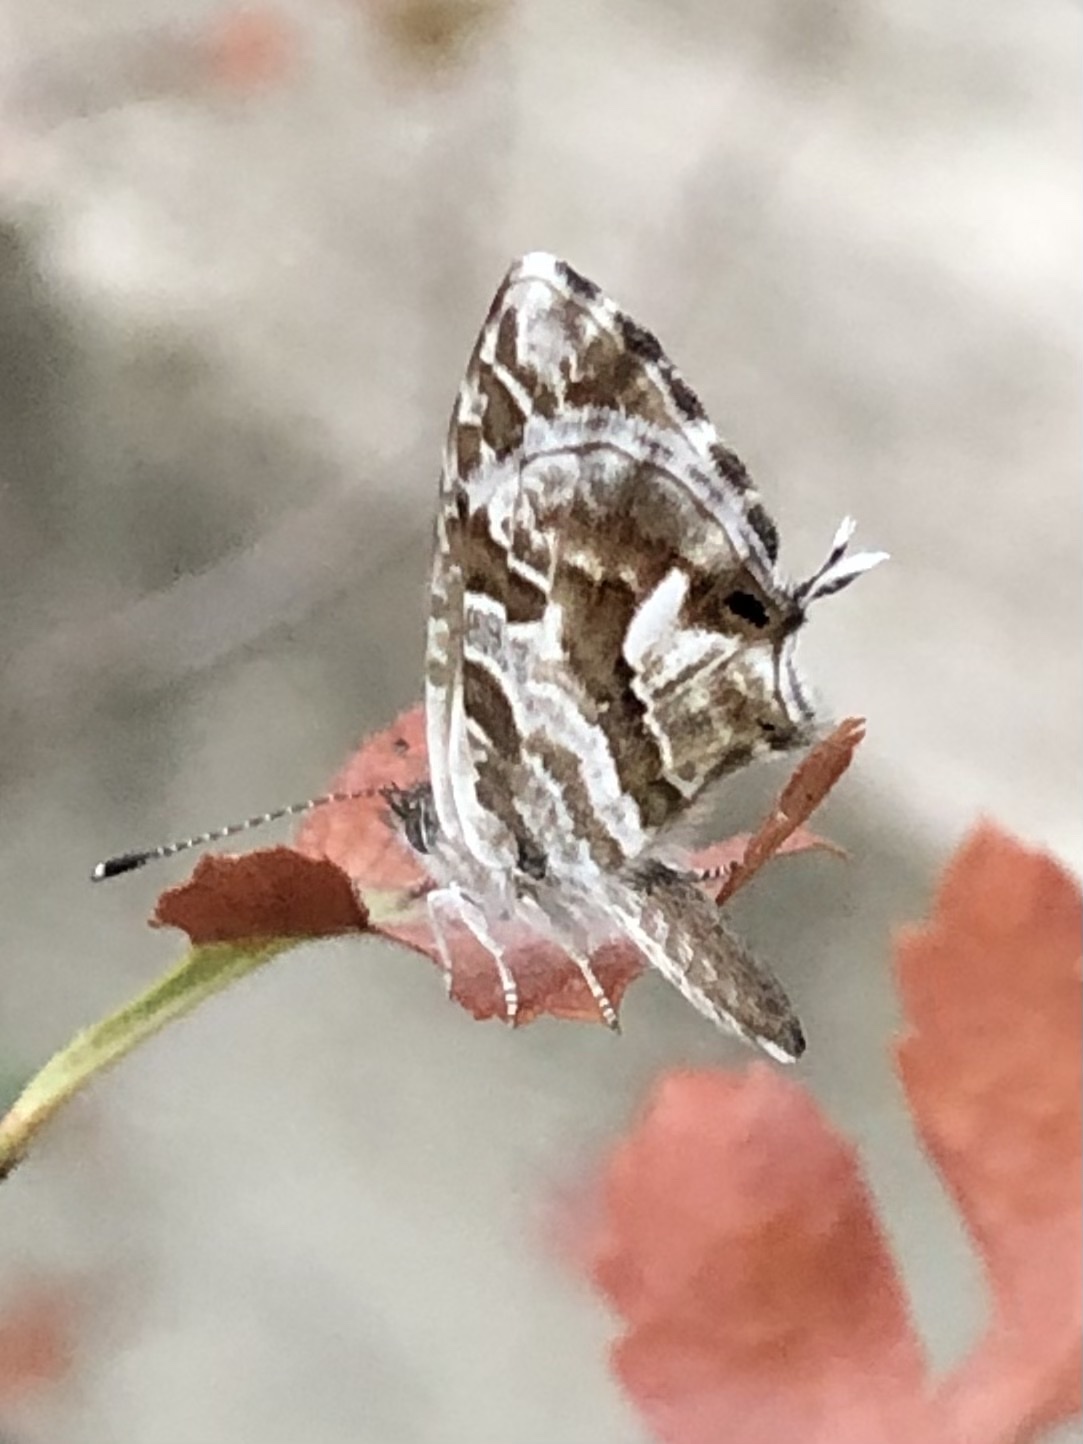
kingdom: Animalia
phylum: Arthropoda
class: Insecta
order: Lepidoptera
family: Lycaenidae
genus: Cacyreus
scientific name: Cacyreus marshalli
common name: Geranium bronze
